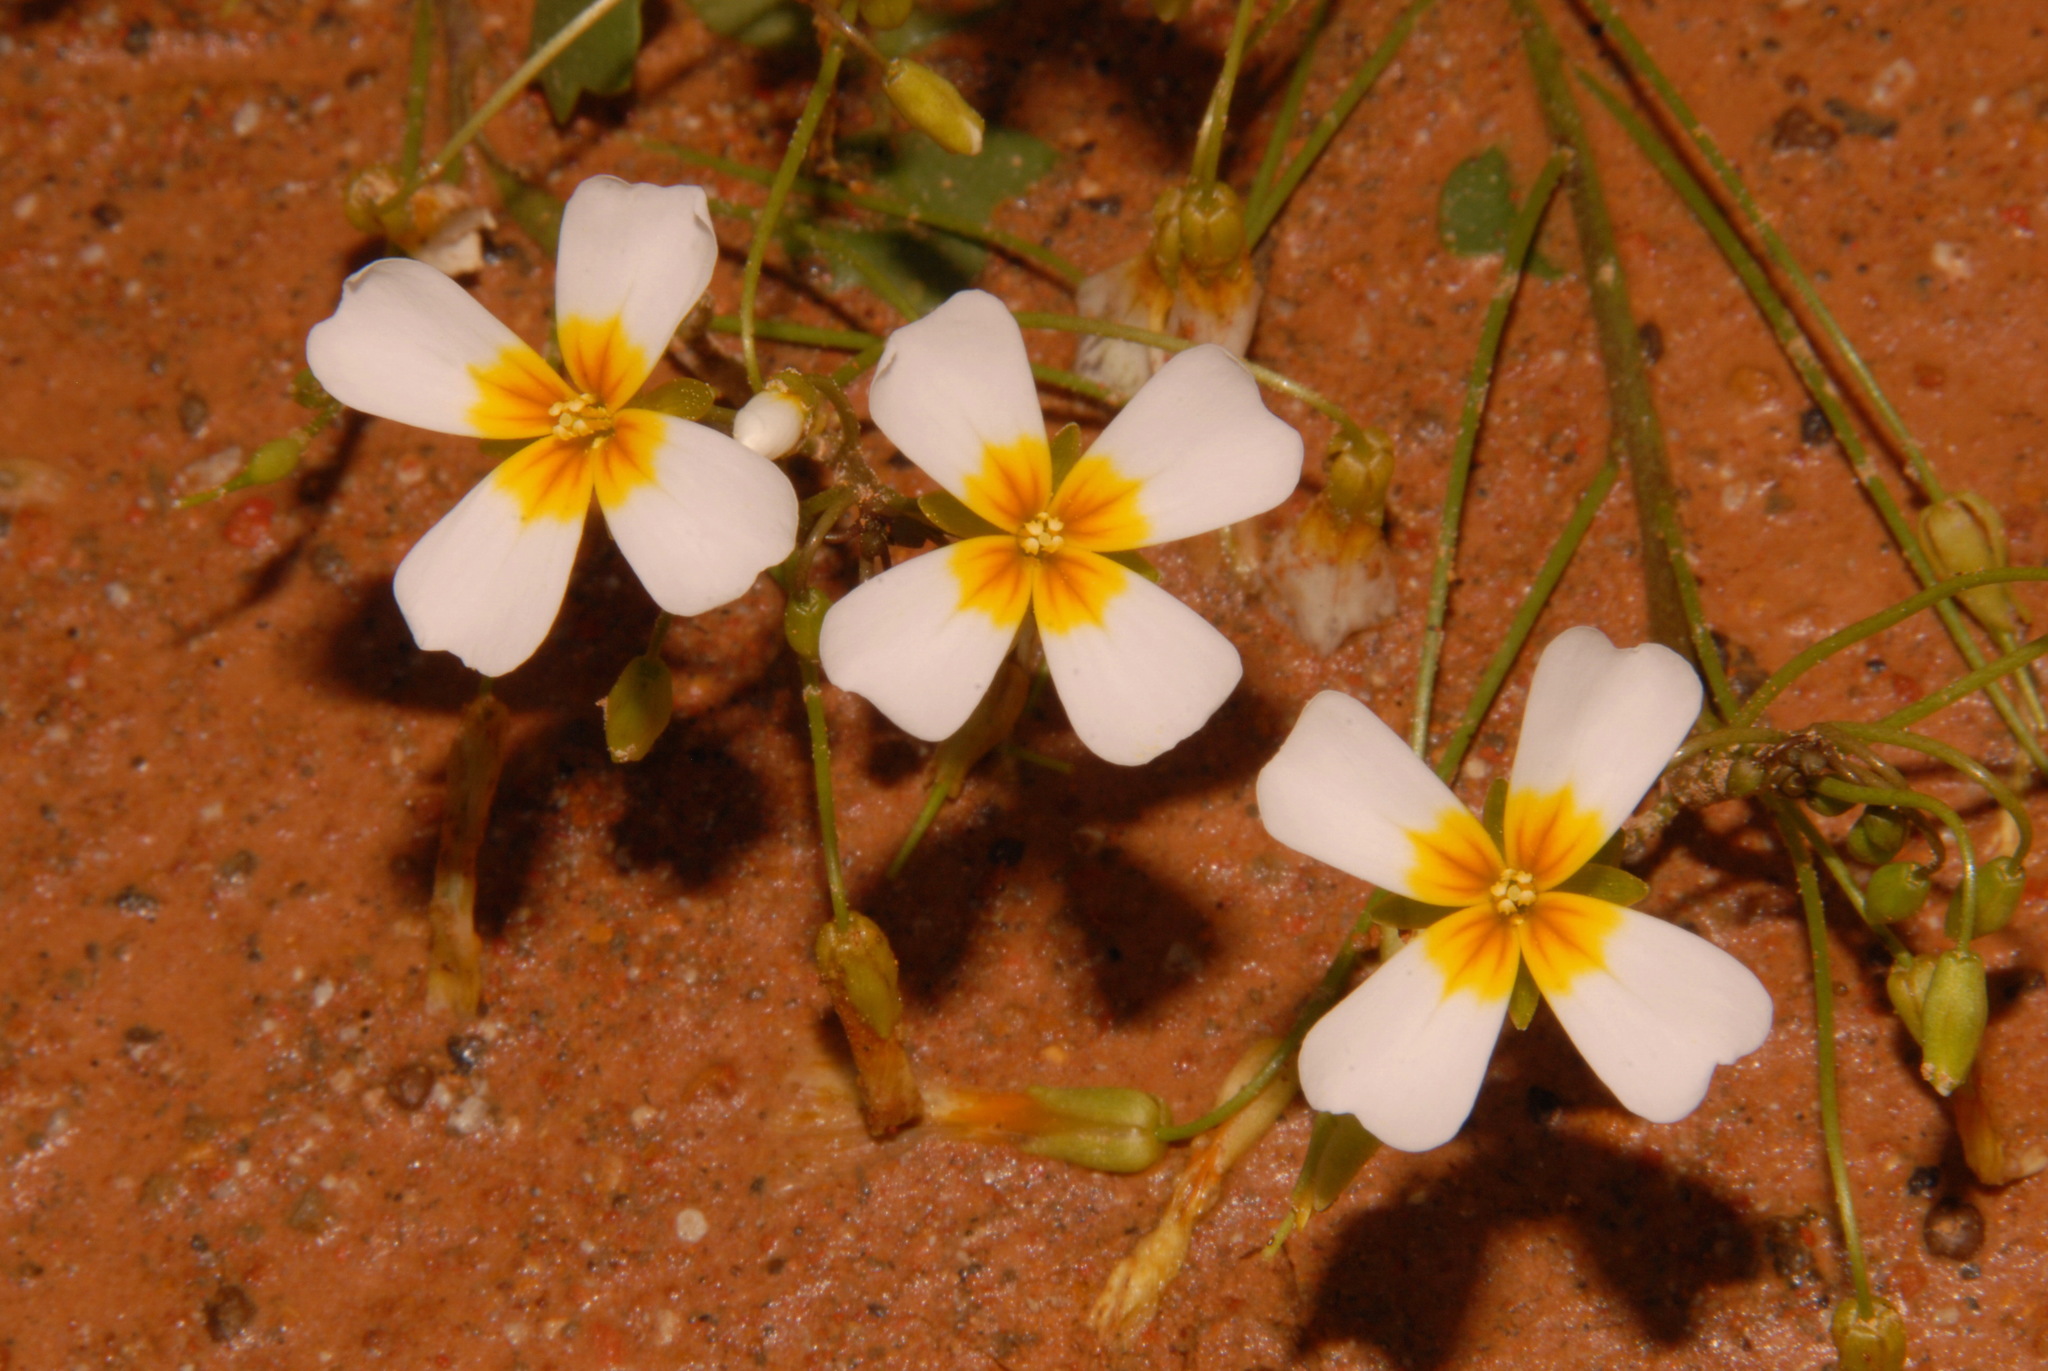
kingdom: Plantae
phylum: Tracheophyta
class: Magnoliopsida
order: Brassicales
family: Brassicaceae
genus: Leavenworthia
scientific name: Leavenworthia crassa
